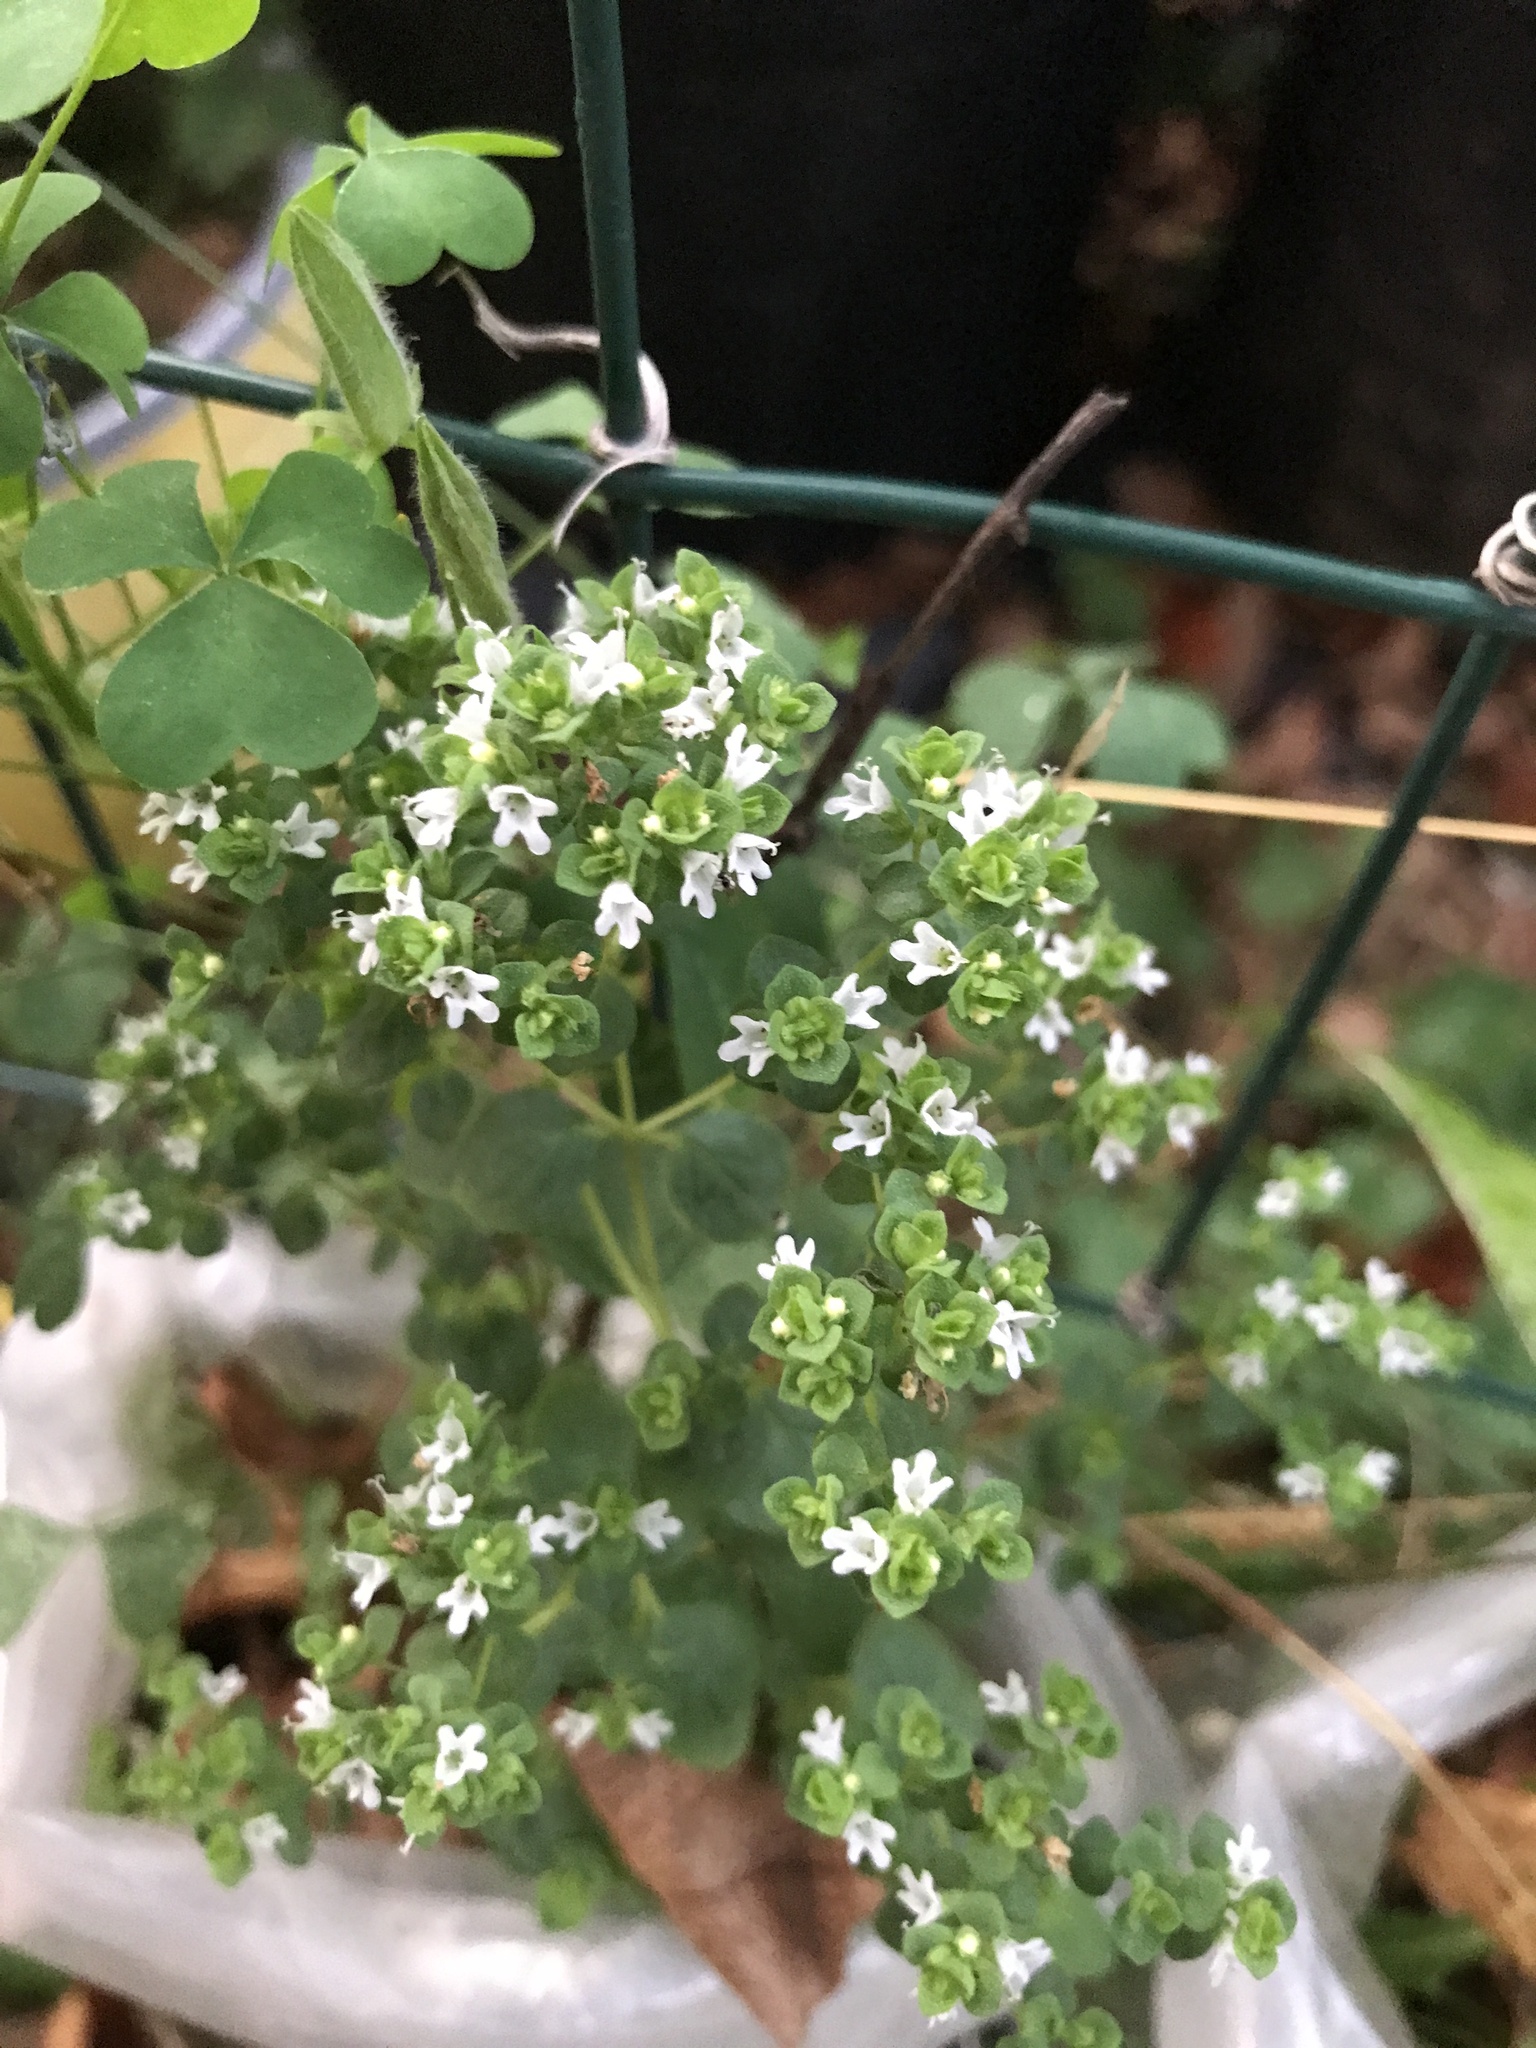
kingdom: Plantae
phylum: Tracheophyta
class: Magnoliopsida
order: Lamiales
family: Lamiaceae
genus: Origanum
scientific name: Origanum vulgare
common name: Wild marjoram
